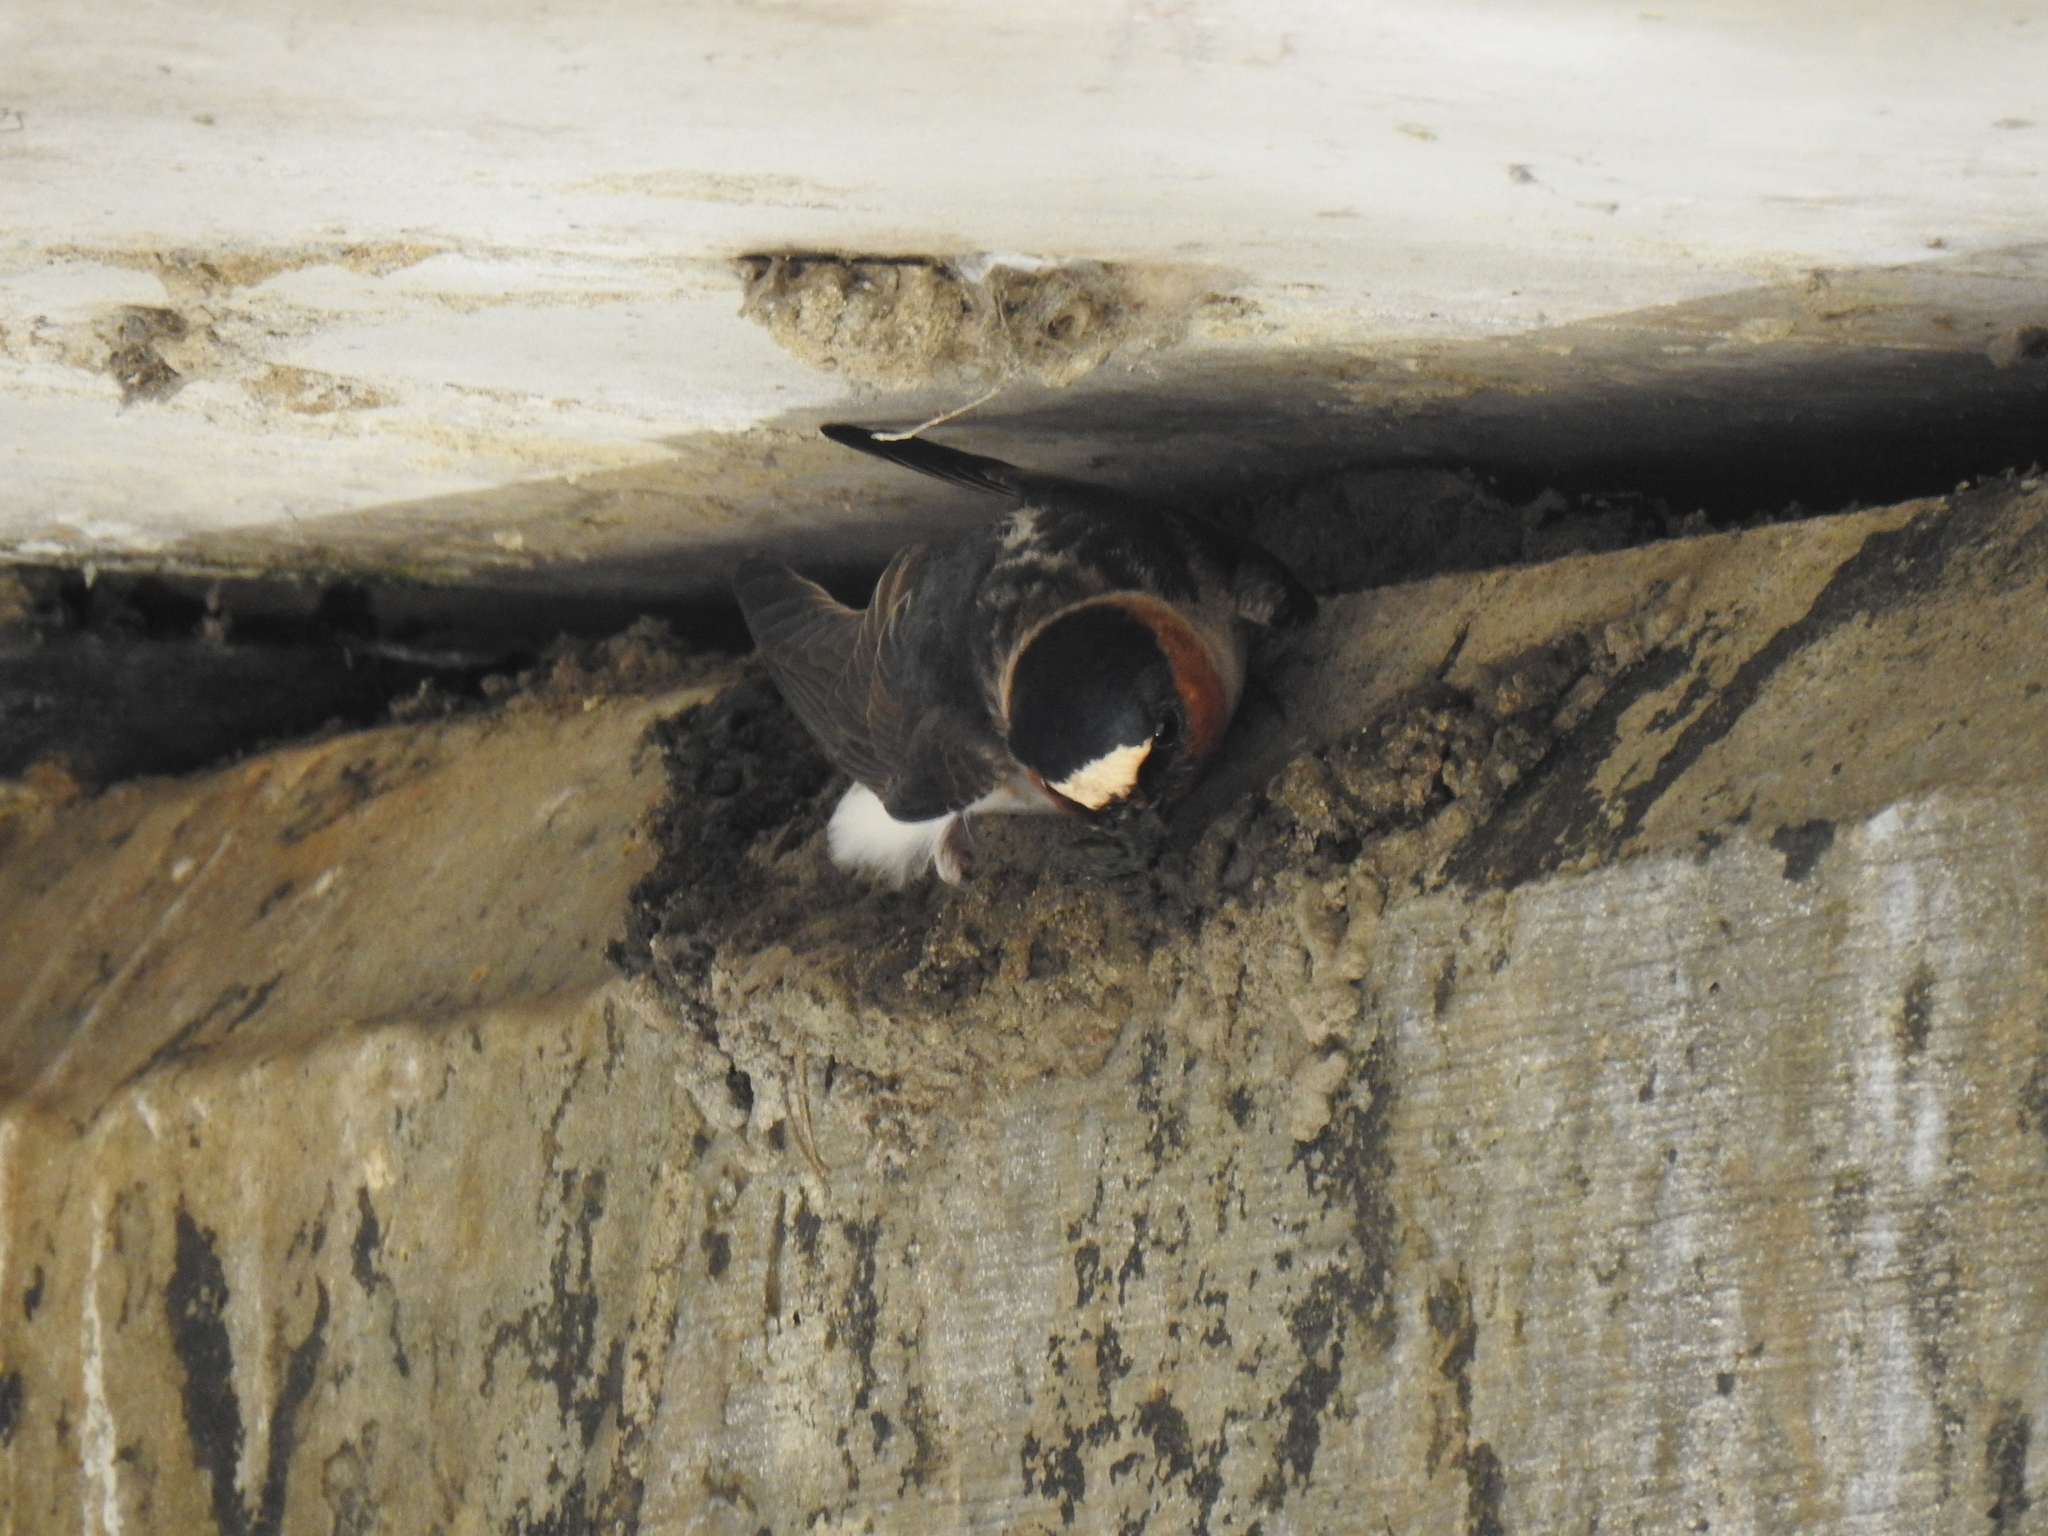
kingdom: Animalia
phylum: Chordata
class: Aves
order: Passeriformes
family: Hirundinidae
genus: Petrochelidon
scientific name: Petrochelidon pyrrhonota
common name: American cliff swallow
